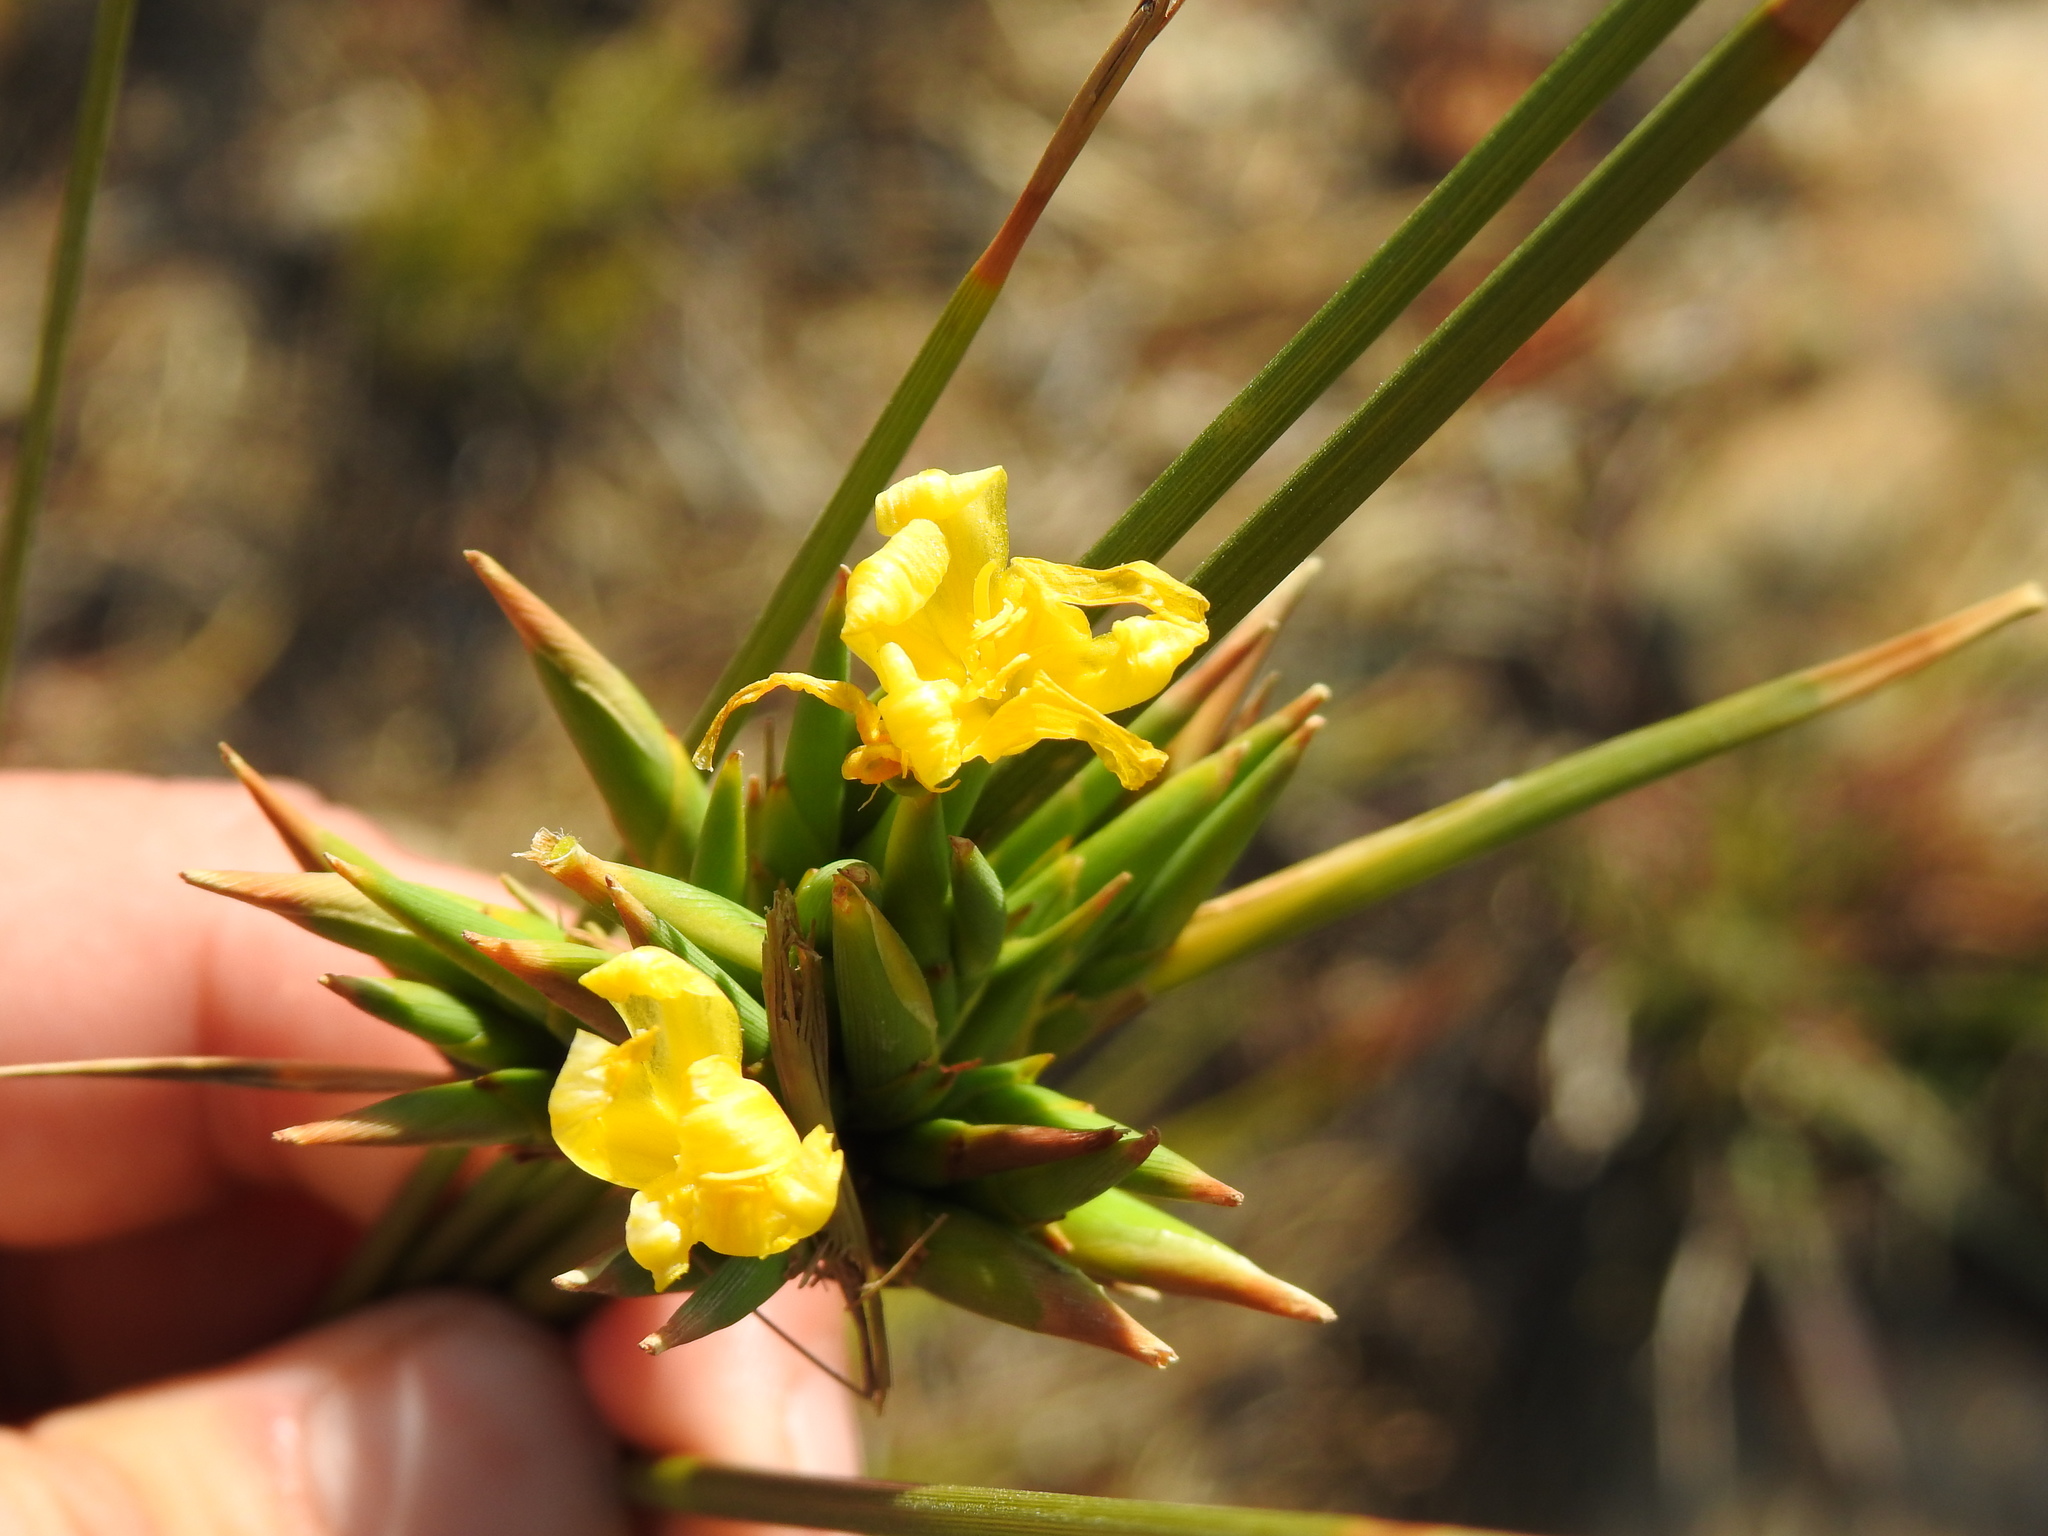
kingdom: Plantae
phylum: Tracheophyta
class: Liliopsida
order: Asparagales
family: Iridaceae
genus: Bobartia
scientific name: Bobartia indica
